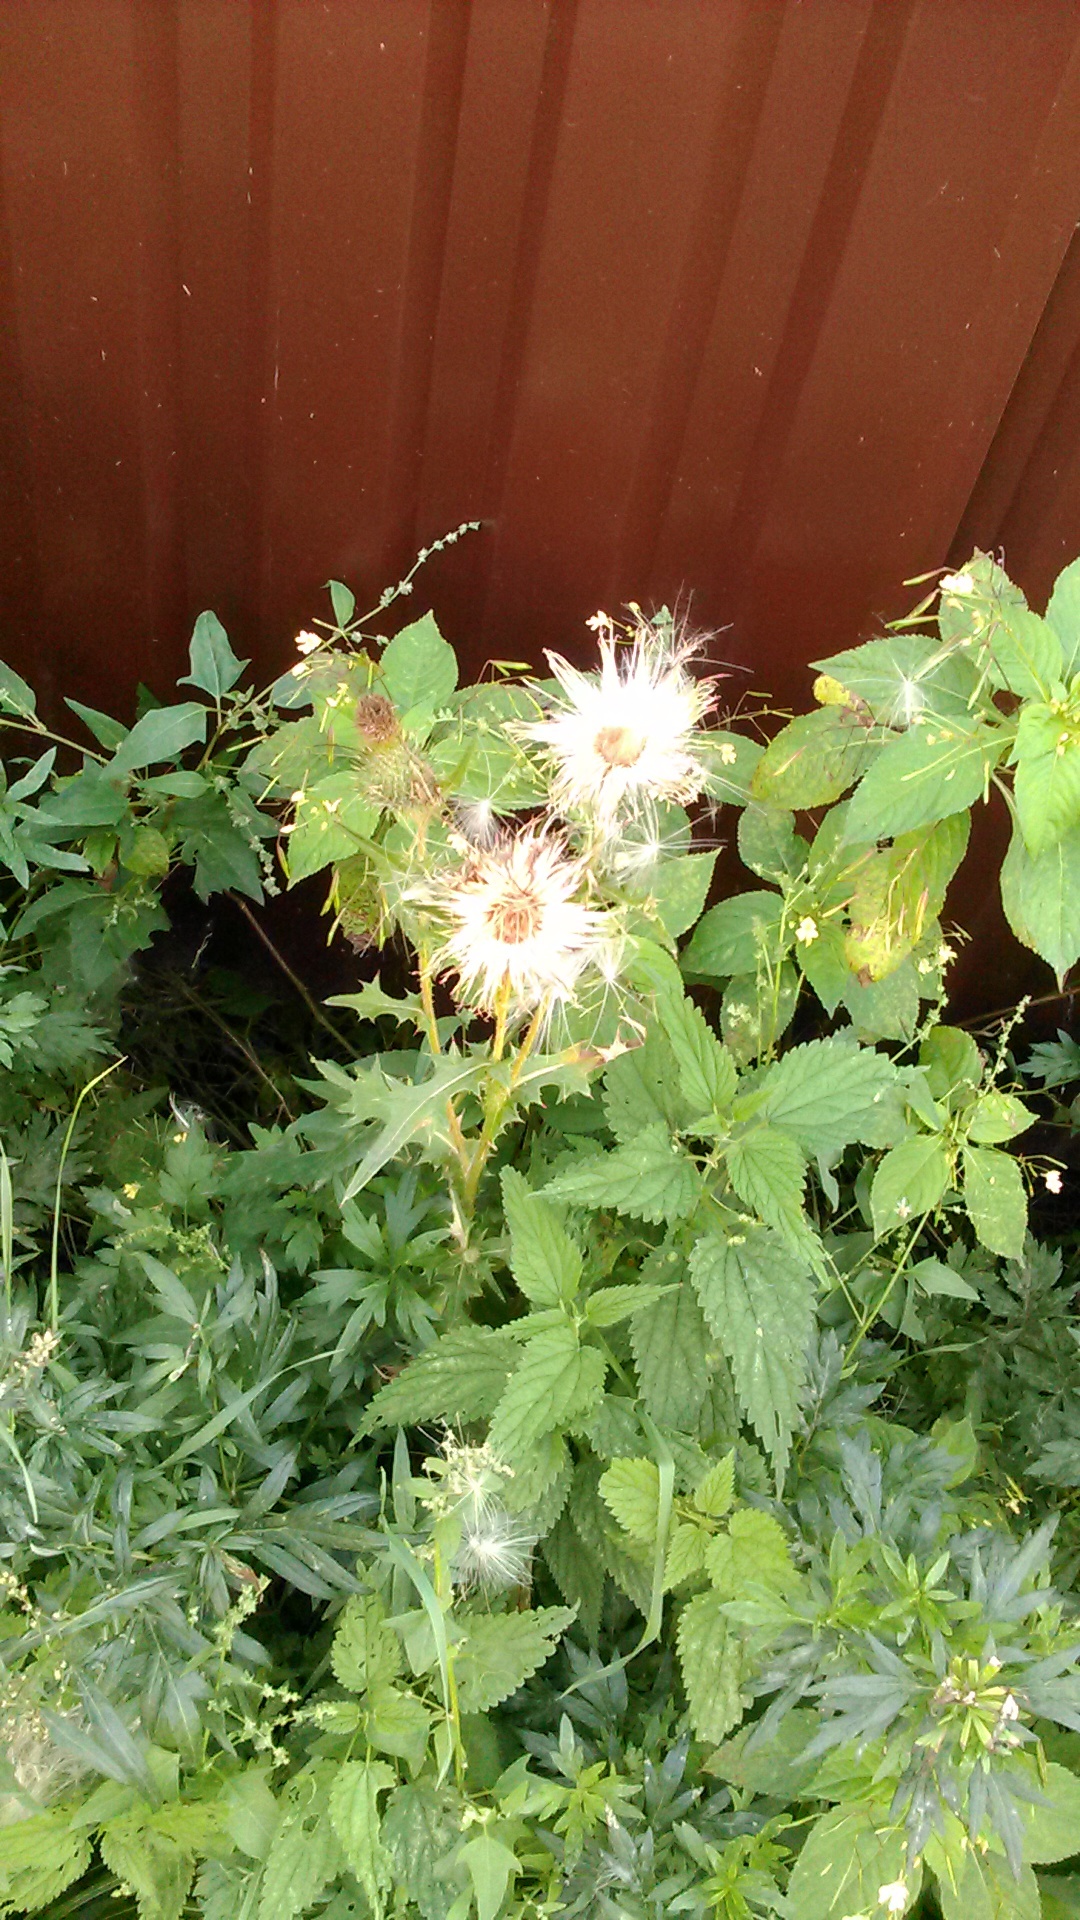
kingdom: Plantae
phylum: Tracheophyta
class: Magnoliopsida
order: Asterales
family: Asteraceae
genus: Cirsium
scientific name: Cirsium vulgare
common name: Bull thistle
